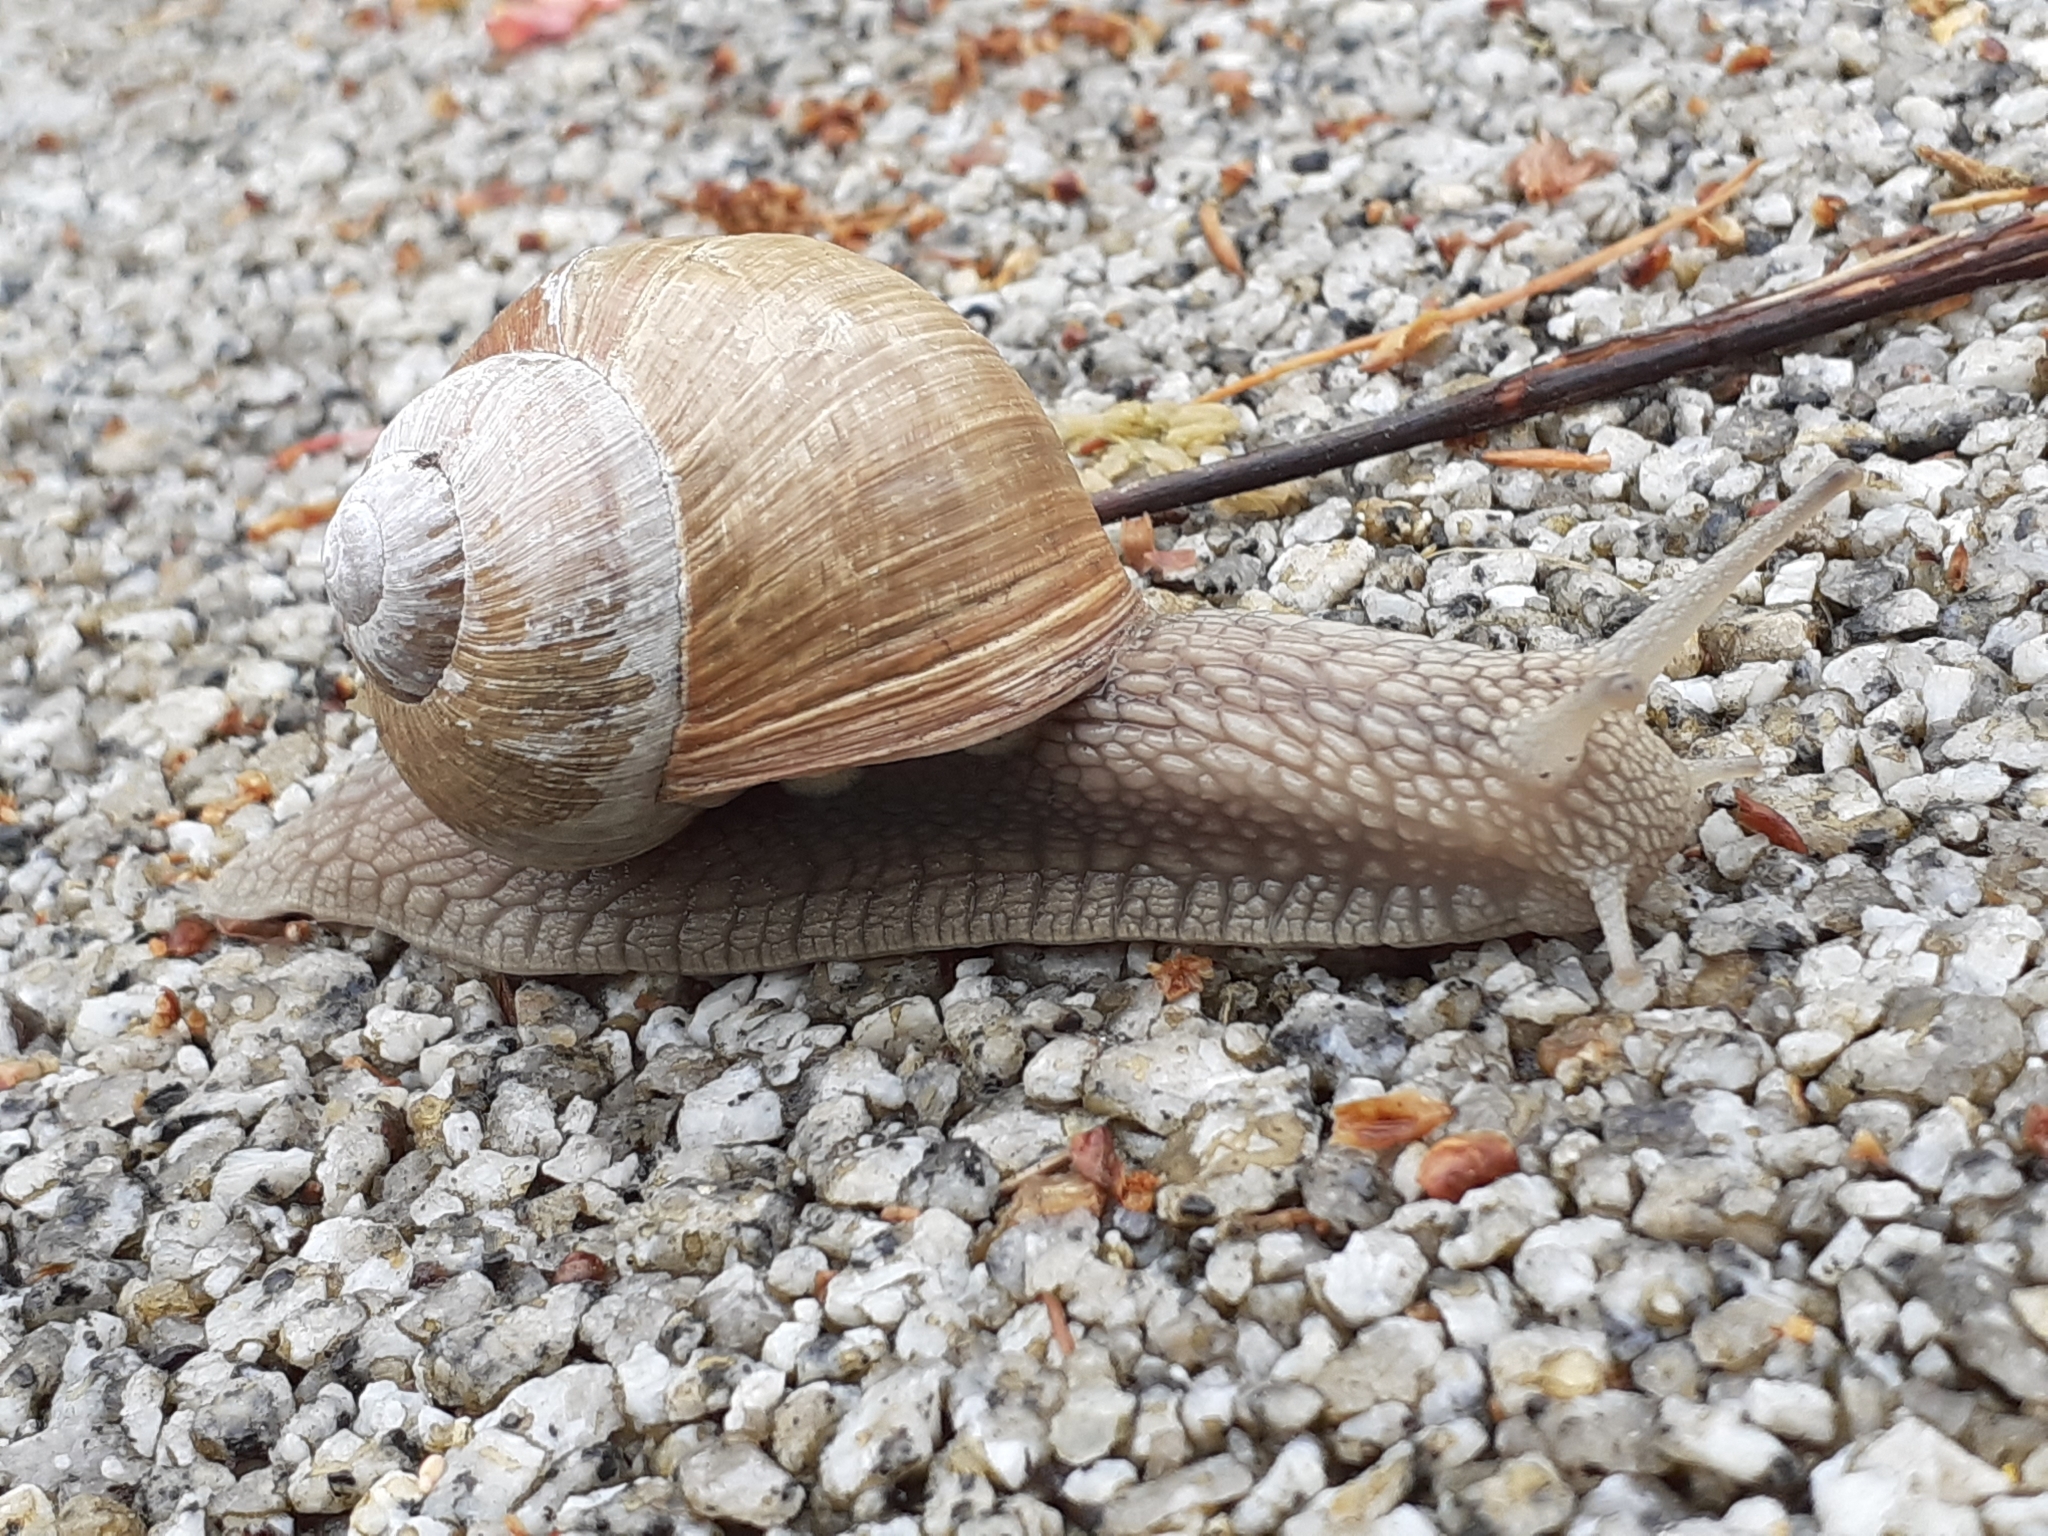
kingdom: Animalia
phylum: Mollusca
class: Gastropoda
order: Stylommatophora
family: Helicidae
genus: Helix
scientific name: Helix pomatia
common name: Roman snail
